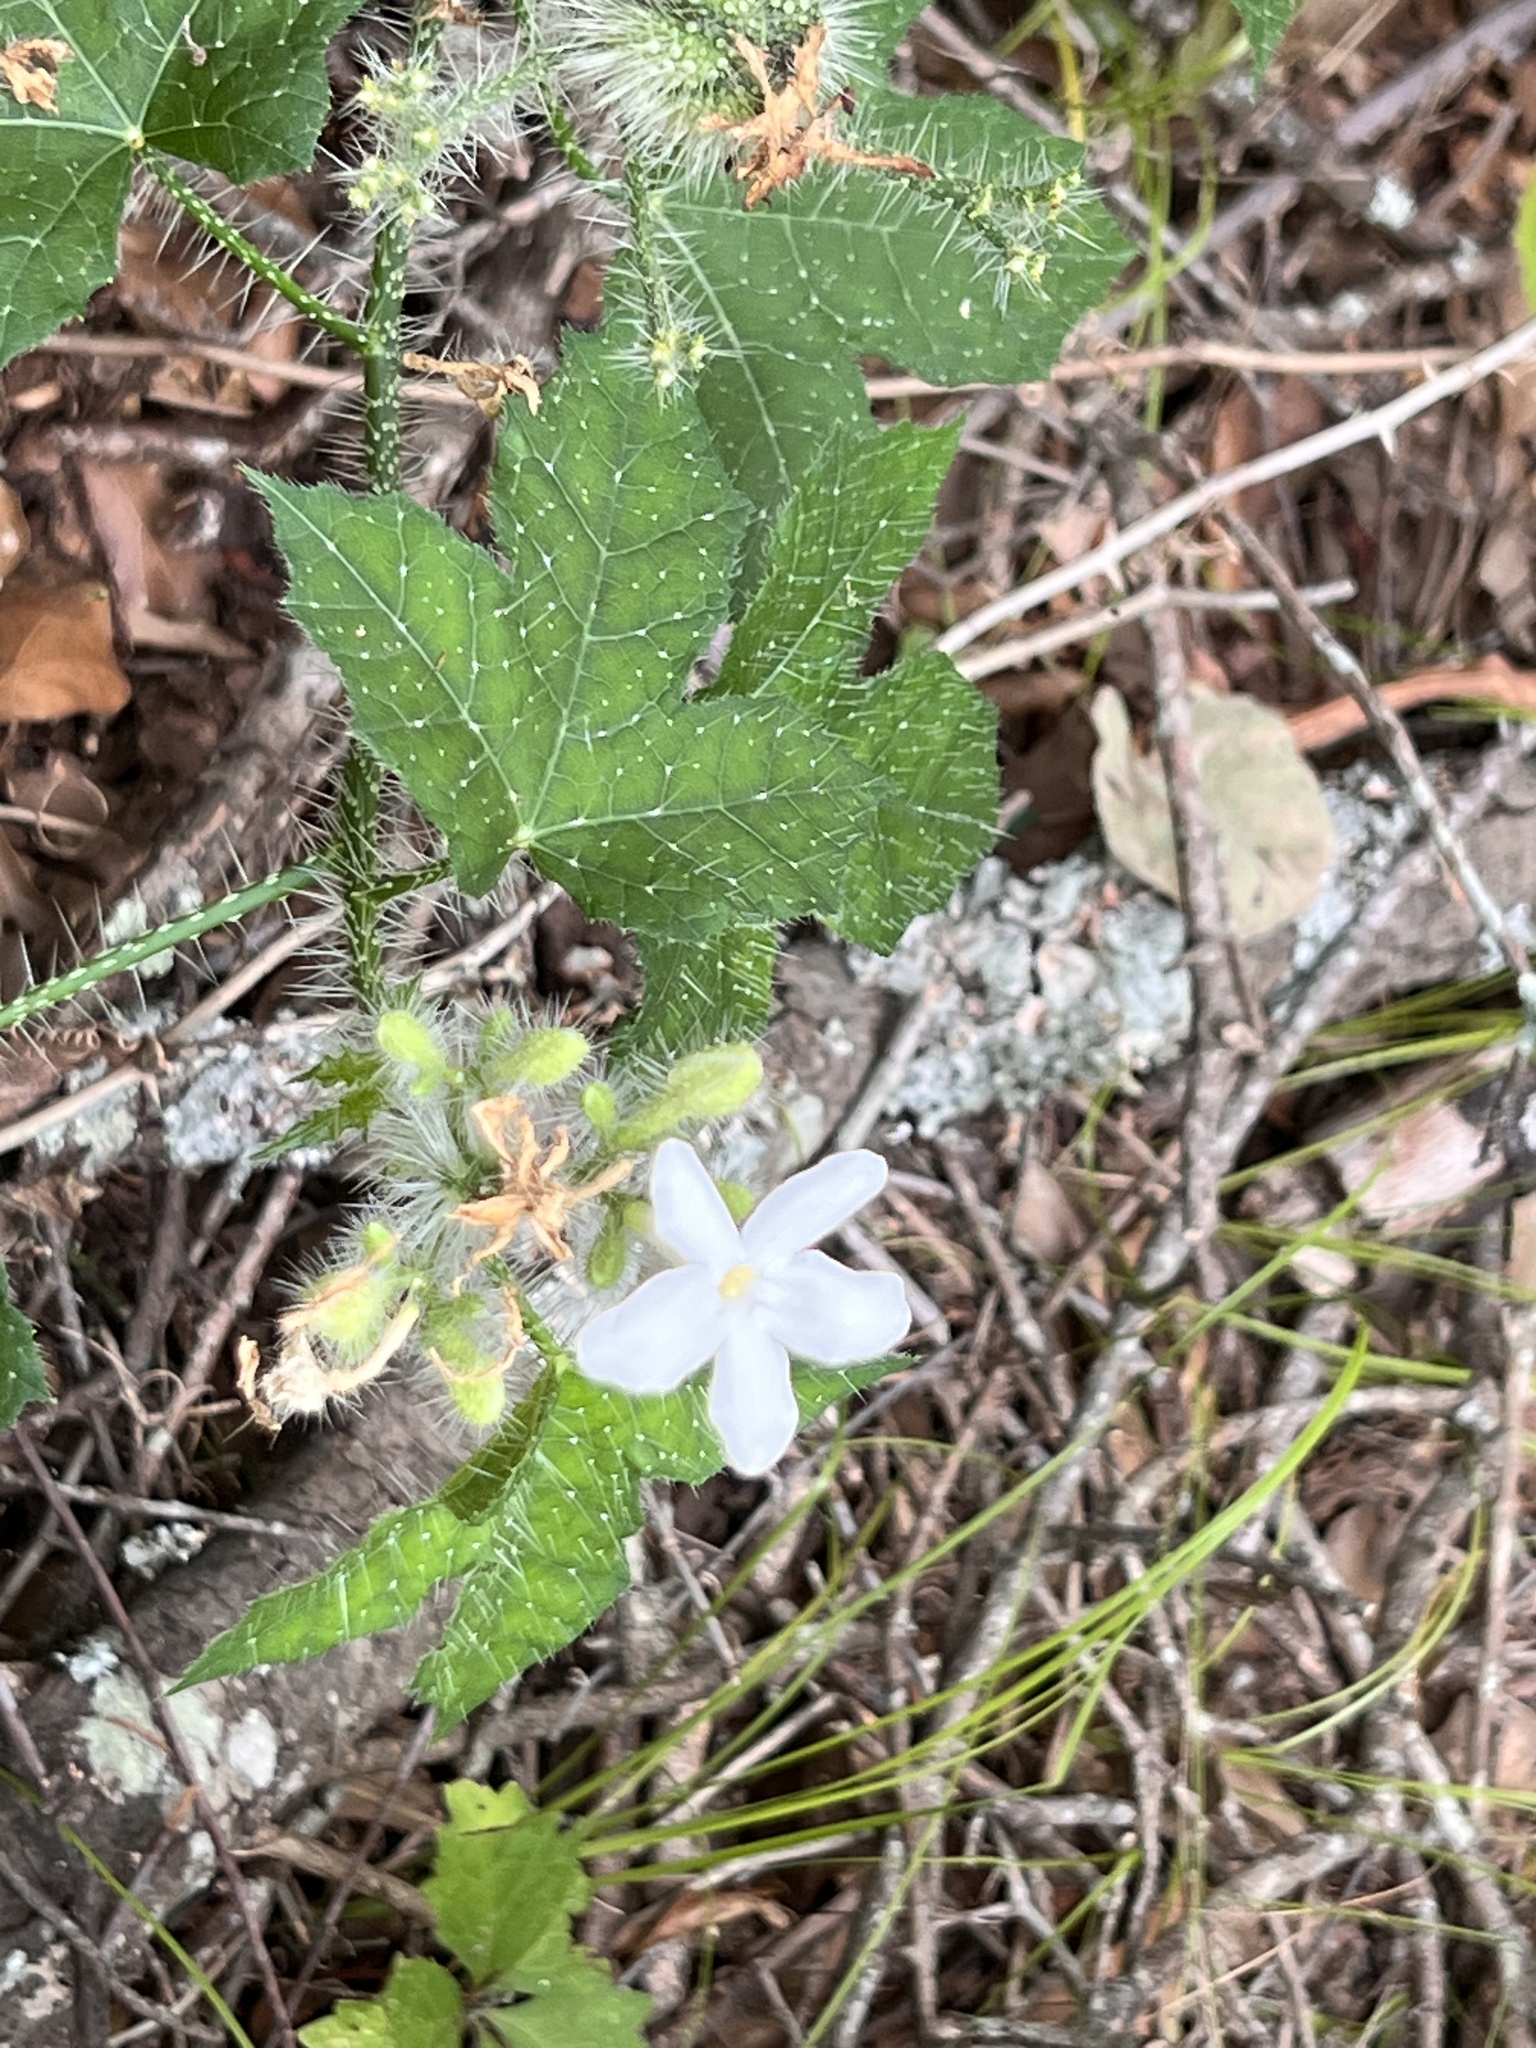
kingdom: Plantae
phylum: Tracheophyta
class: Magnoliopsida
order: Malpighiales
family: Euphorbiaceae
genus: Cnidoscolus
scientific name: Cnidoscolus texanus
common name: Texas bull-nettle
